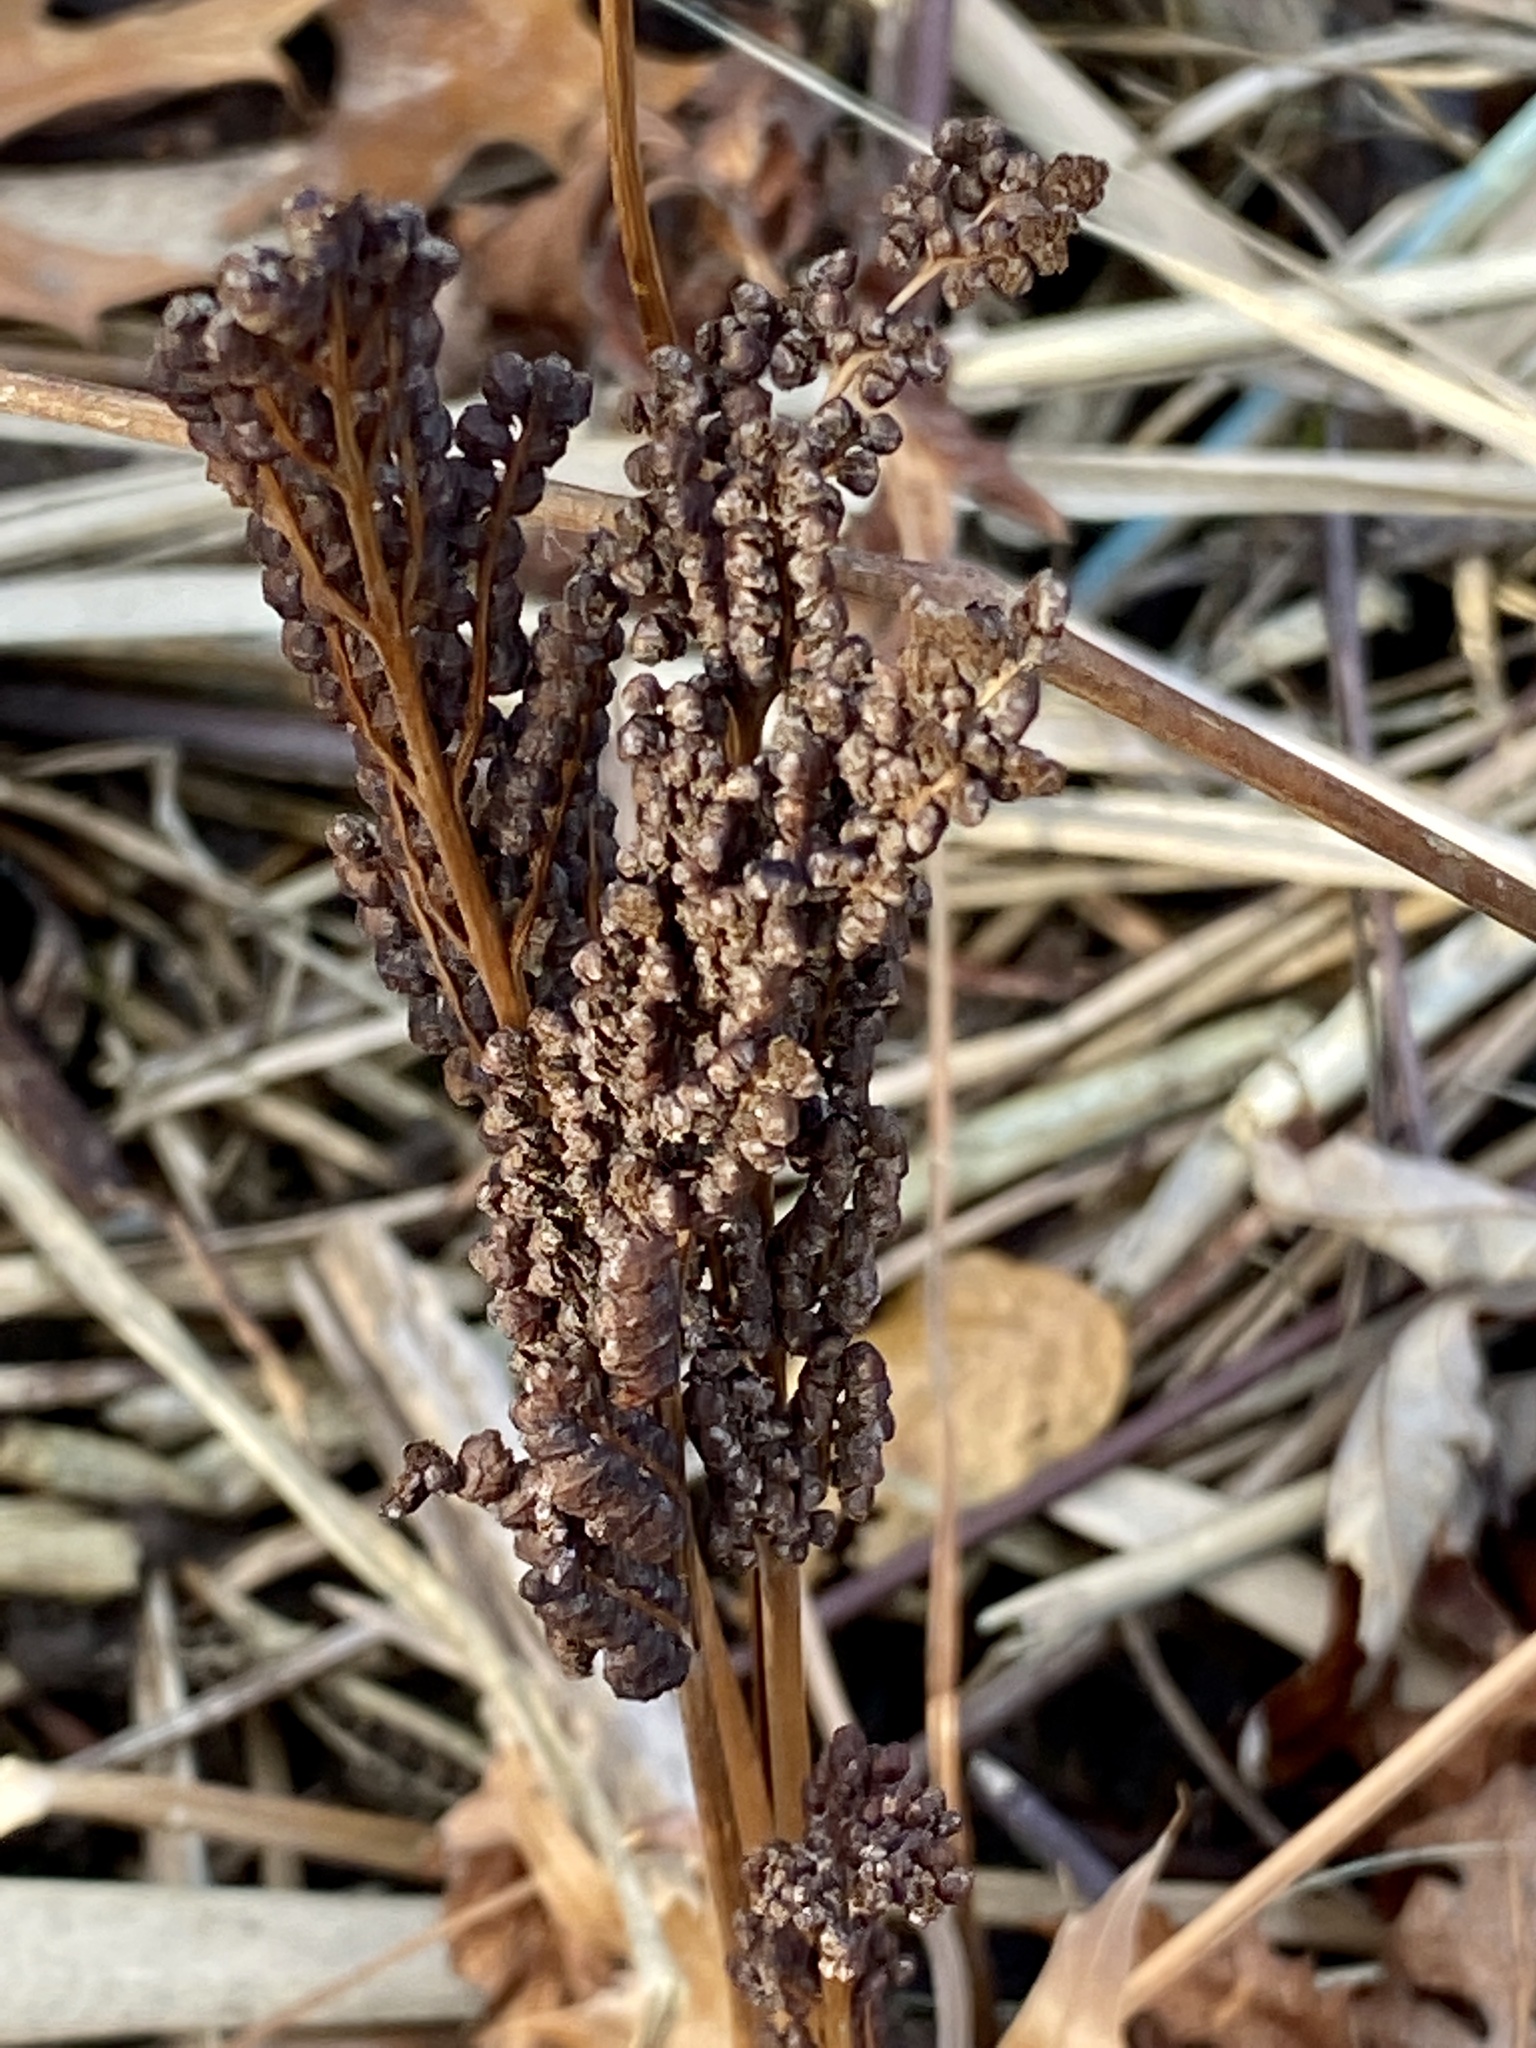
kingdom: Plantae
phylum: Tracheophyta
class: Polypodiopsida
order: Polypodiales
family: Onocleaceae
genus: Onoclea
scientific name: Onoclea sensibilis
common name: Sensitive fern
